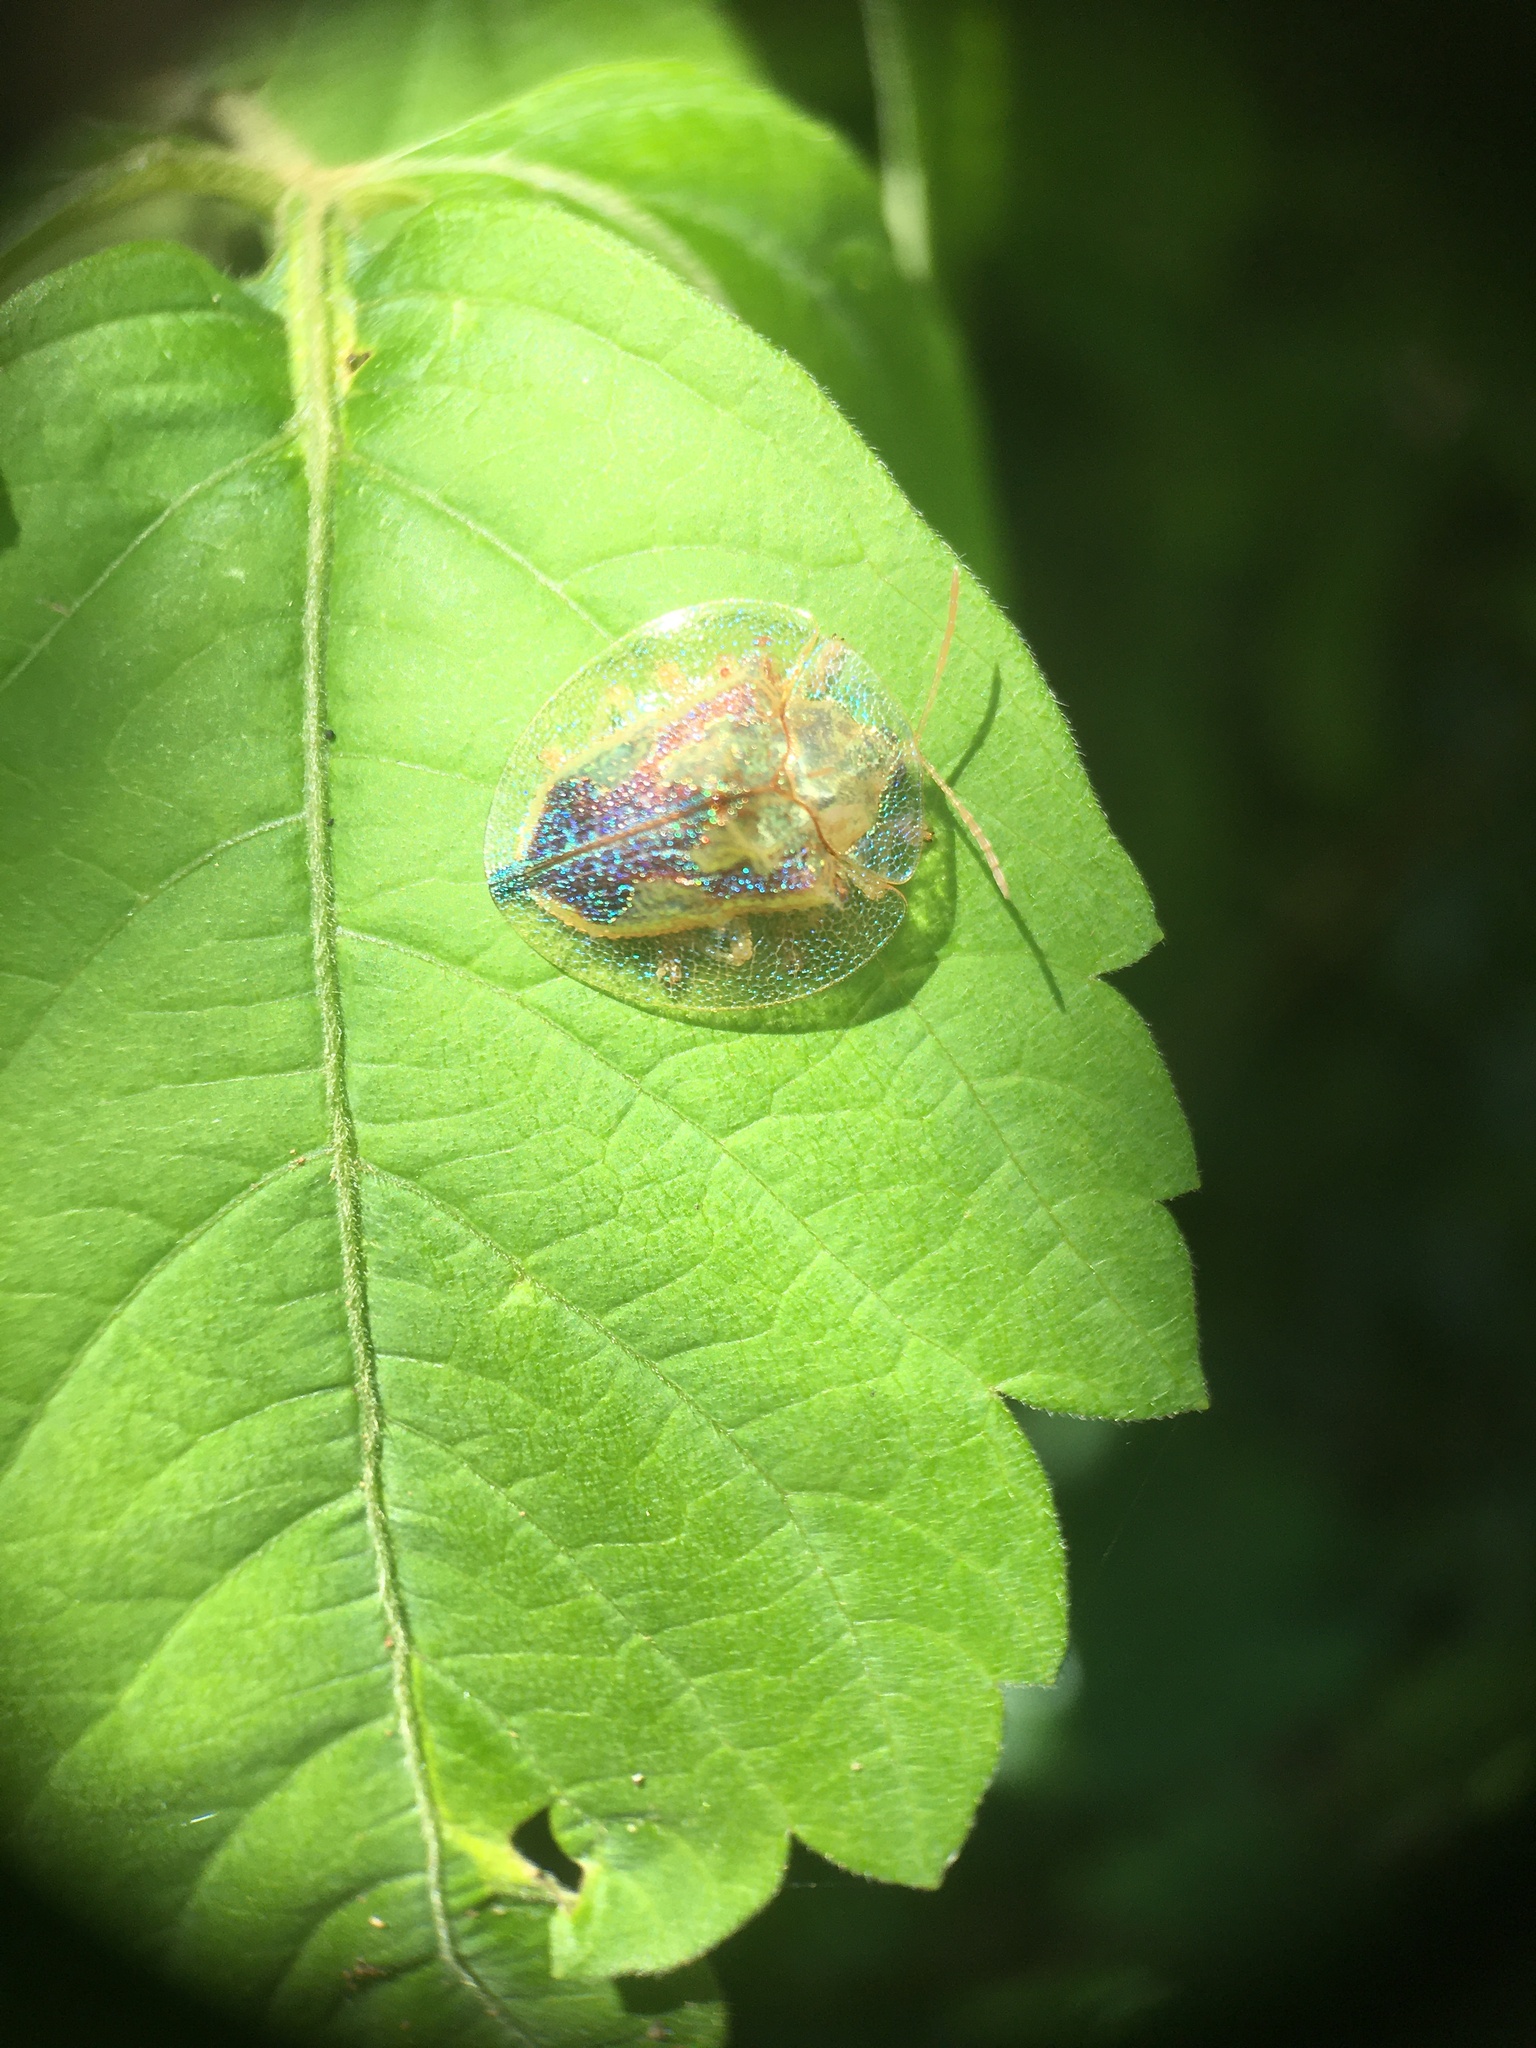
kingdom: Animalia
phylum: Arthropoda
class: Insecta
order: Coleoptera
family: Chrysomelidae
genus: Coptocycla
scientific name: Coptocycla contemta
